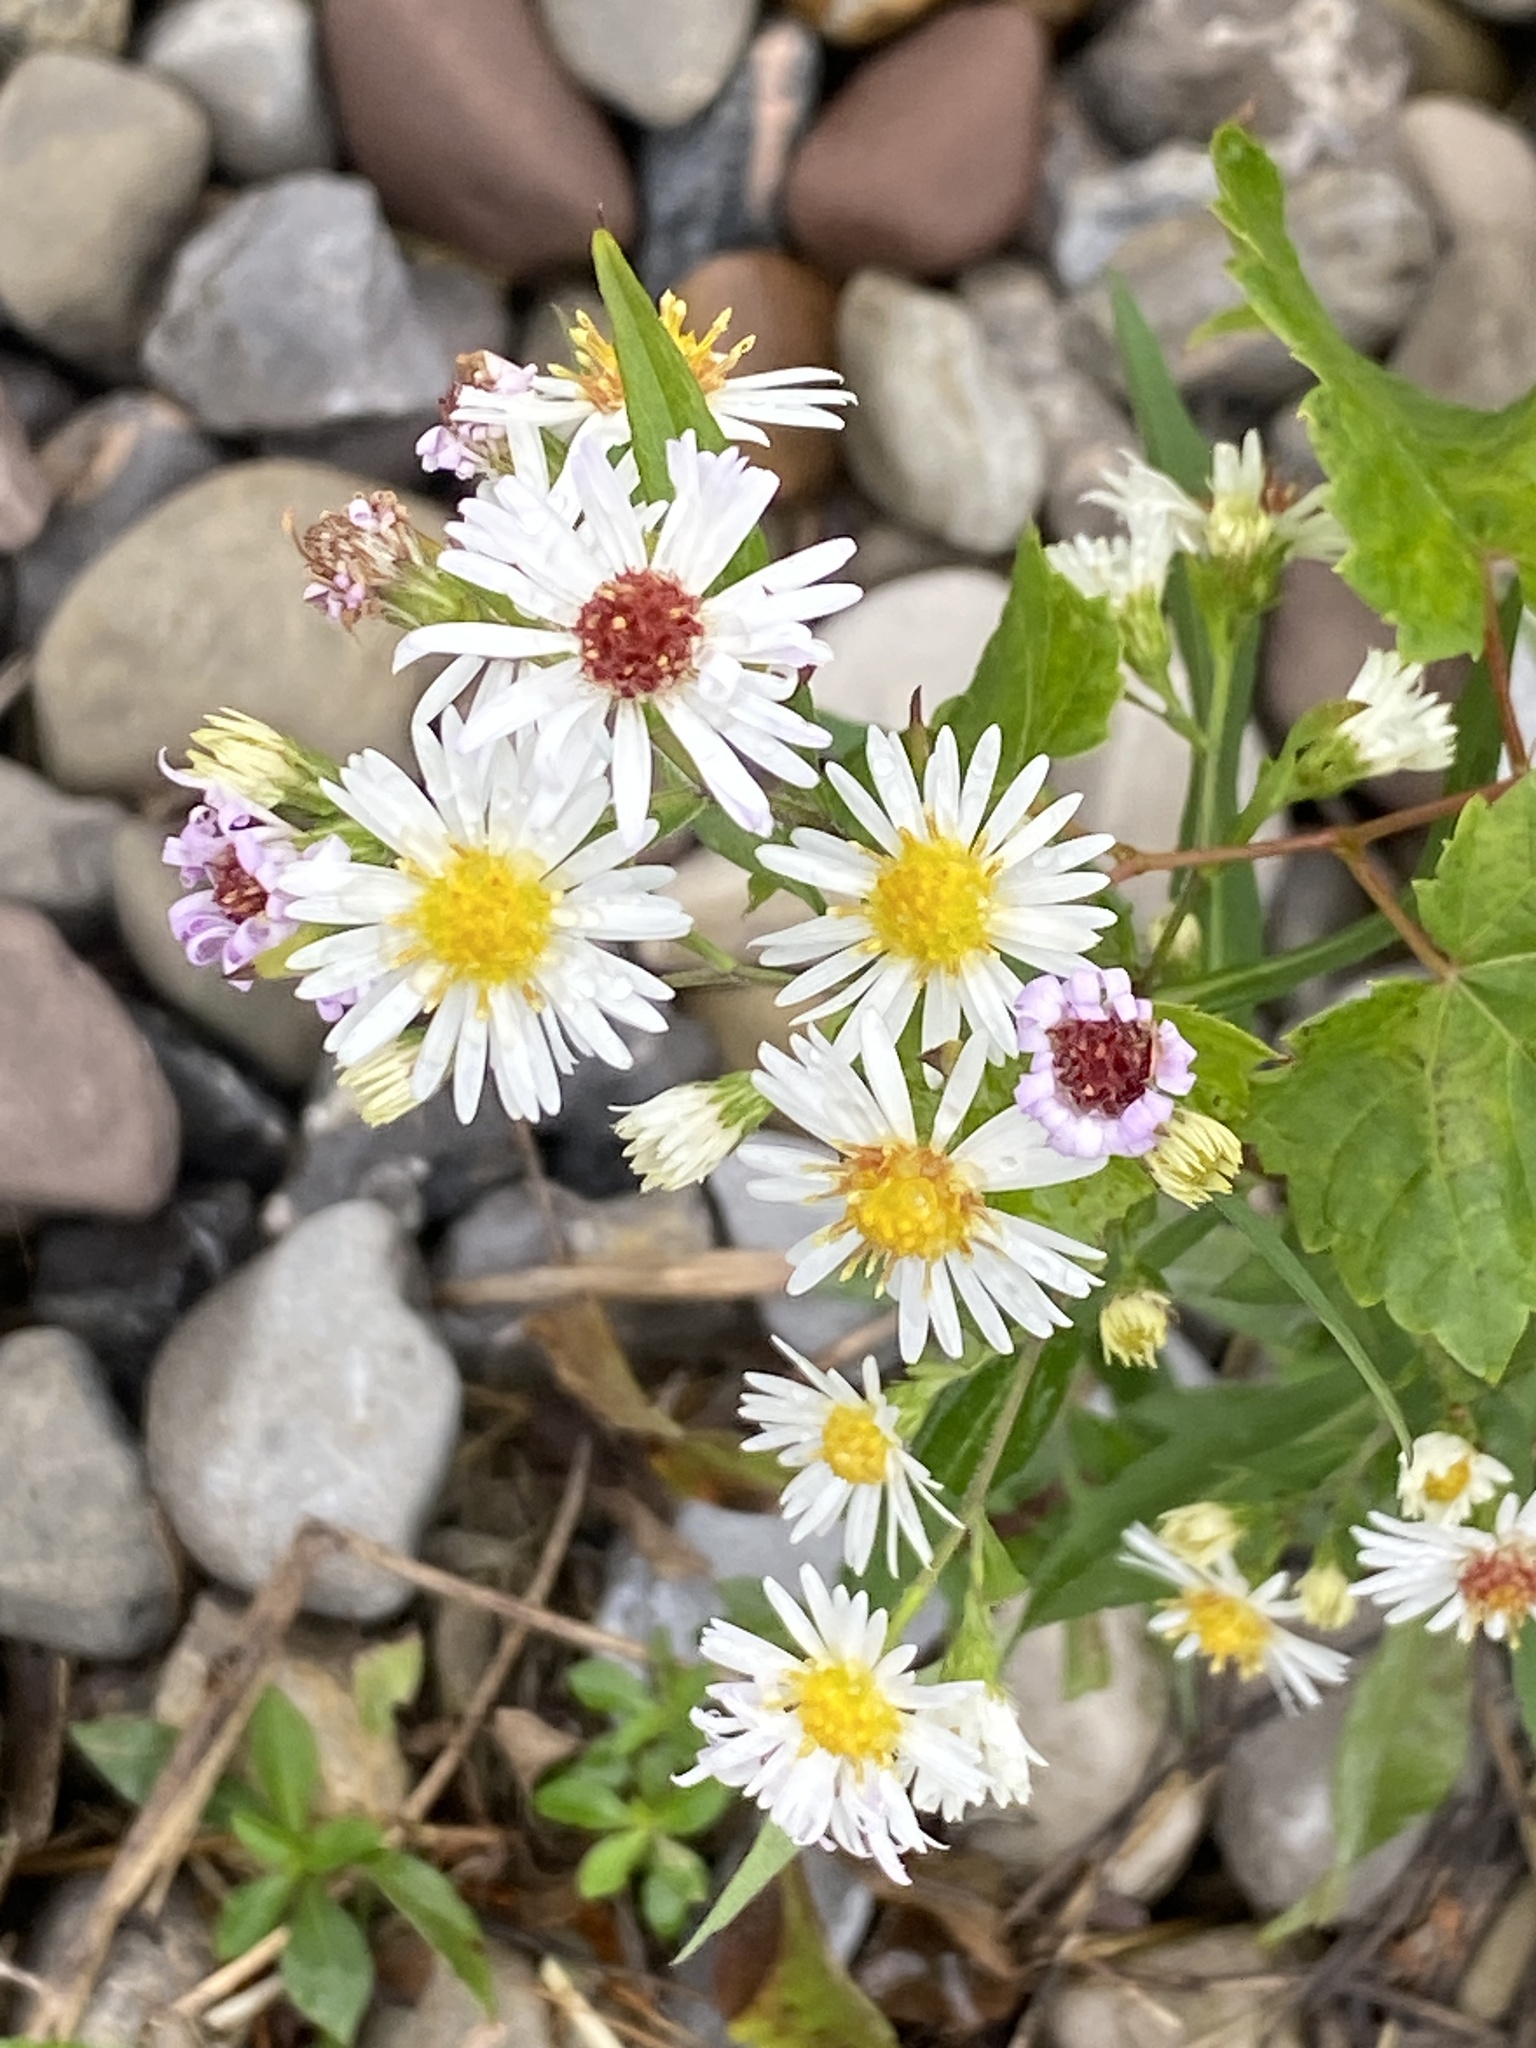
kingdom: Plantae
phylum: Tracheophyta
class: Magnoliopsida
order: Asterales
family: Asteraceae
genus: Symphyotrichum
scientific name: Symphyotrichum lanceolatum
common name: Panicled aster
